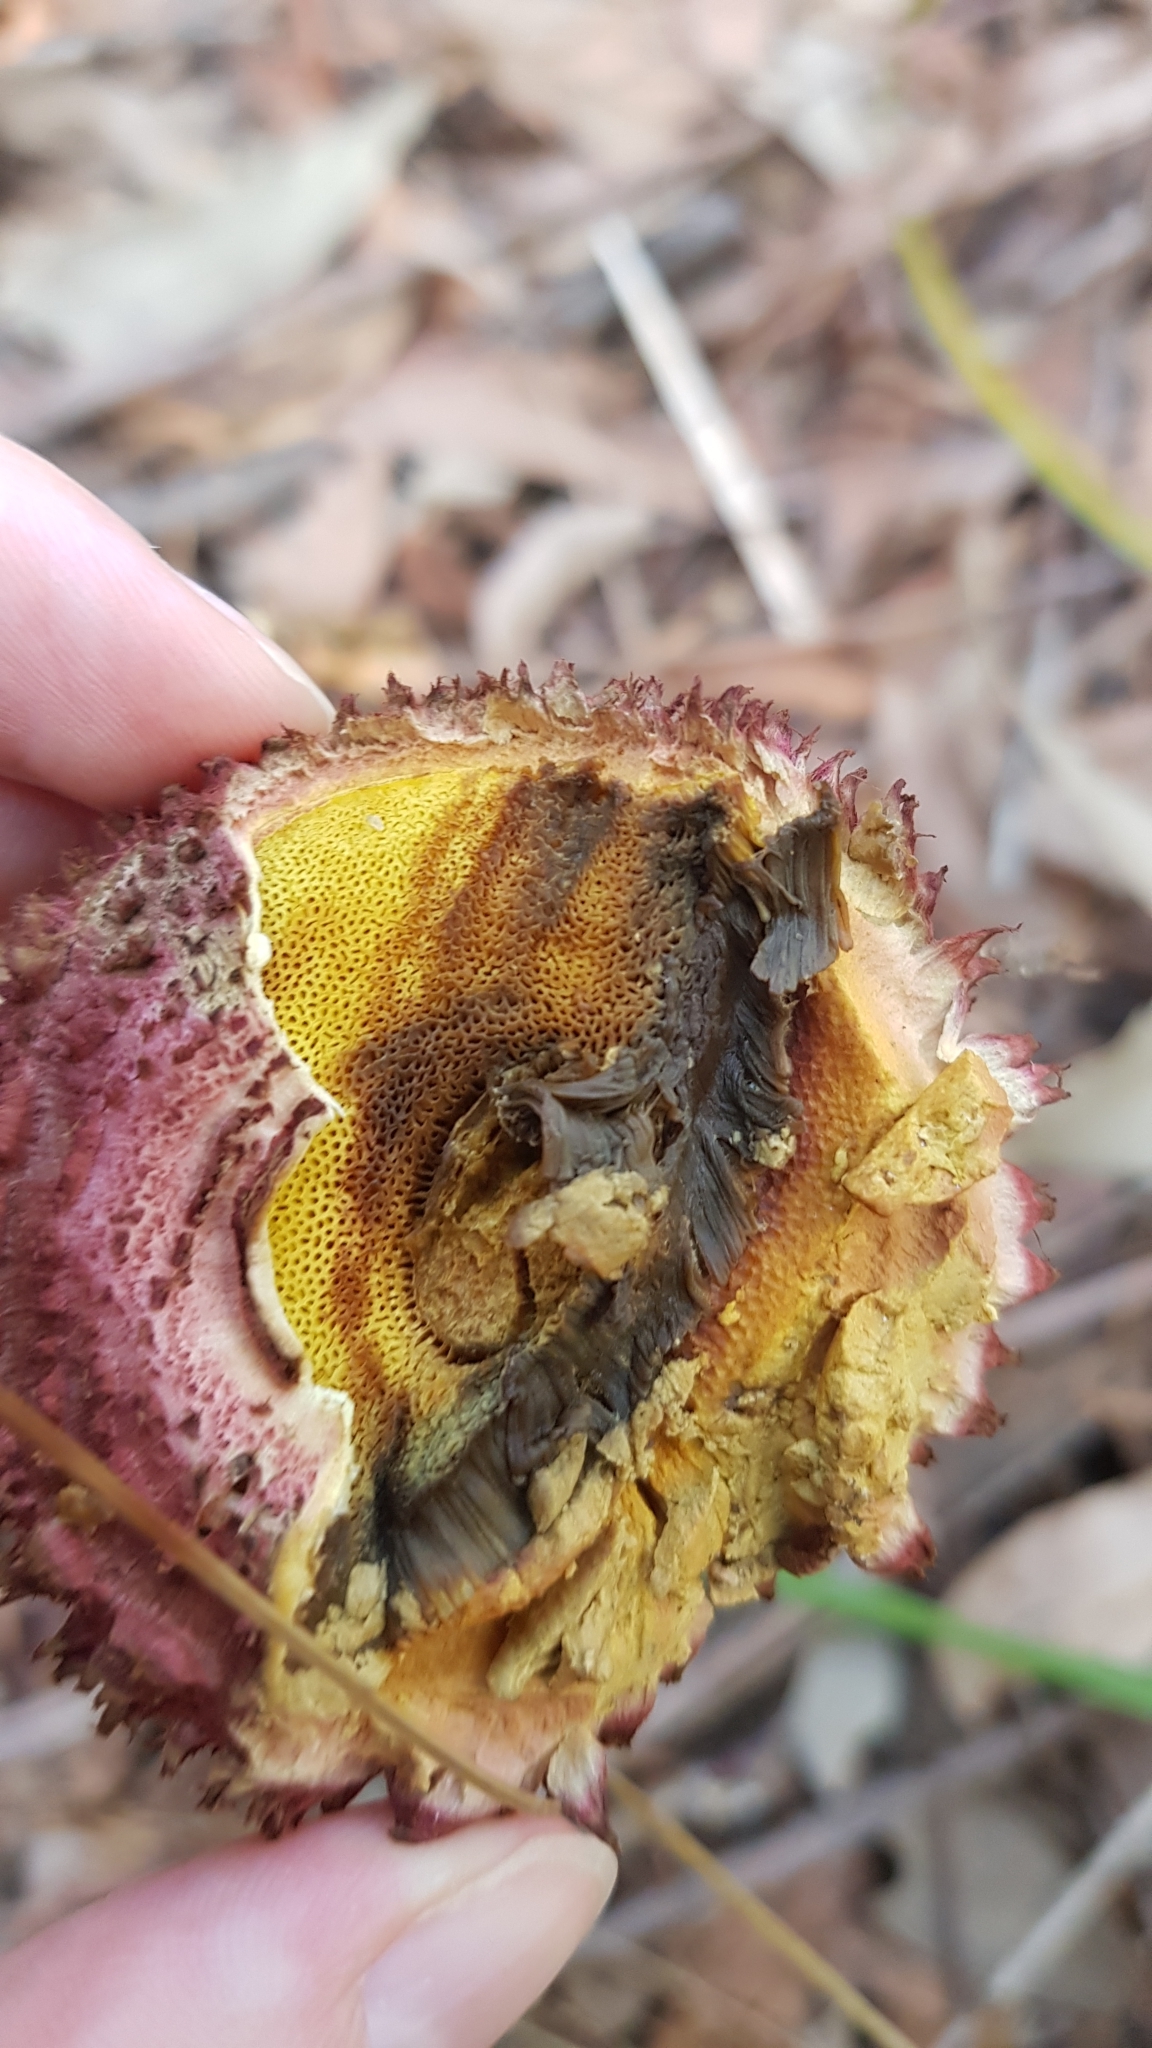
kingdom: Fungi
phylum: Basidiomycota
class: Agaricomycetes
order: Boletales
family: Boletaceae
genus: Boletellus
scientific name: Boletellus emodensis
